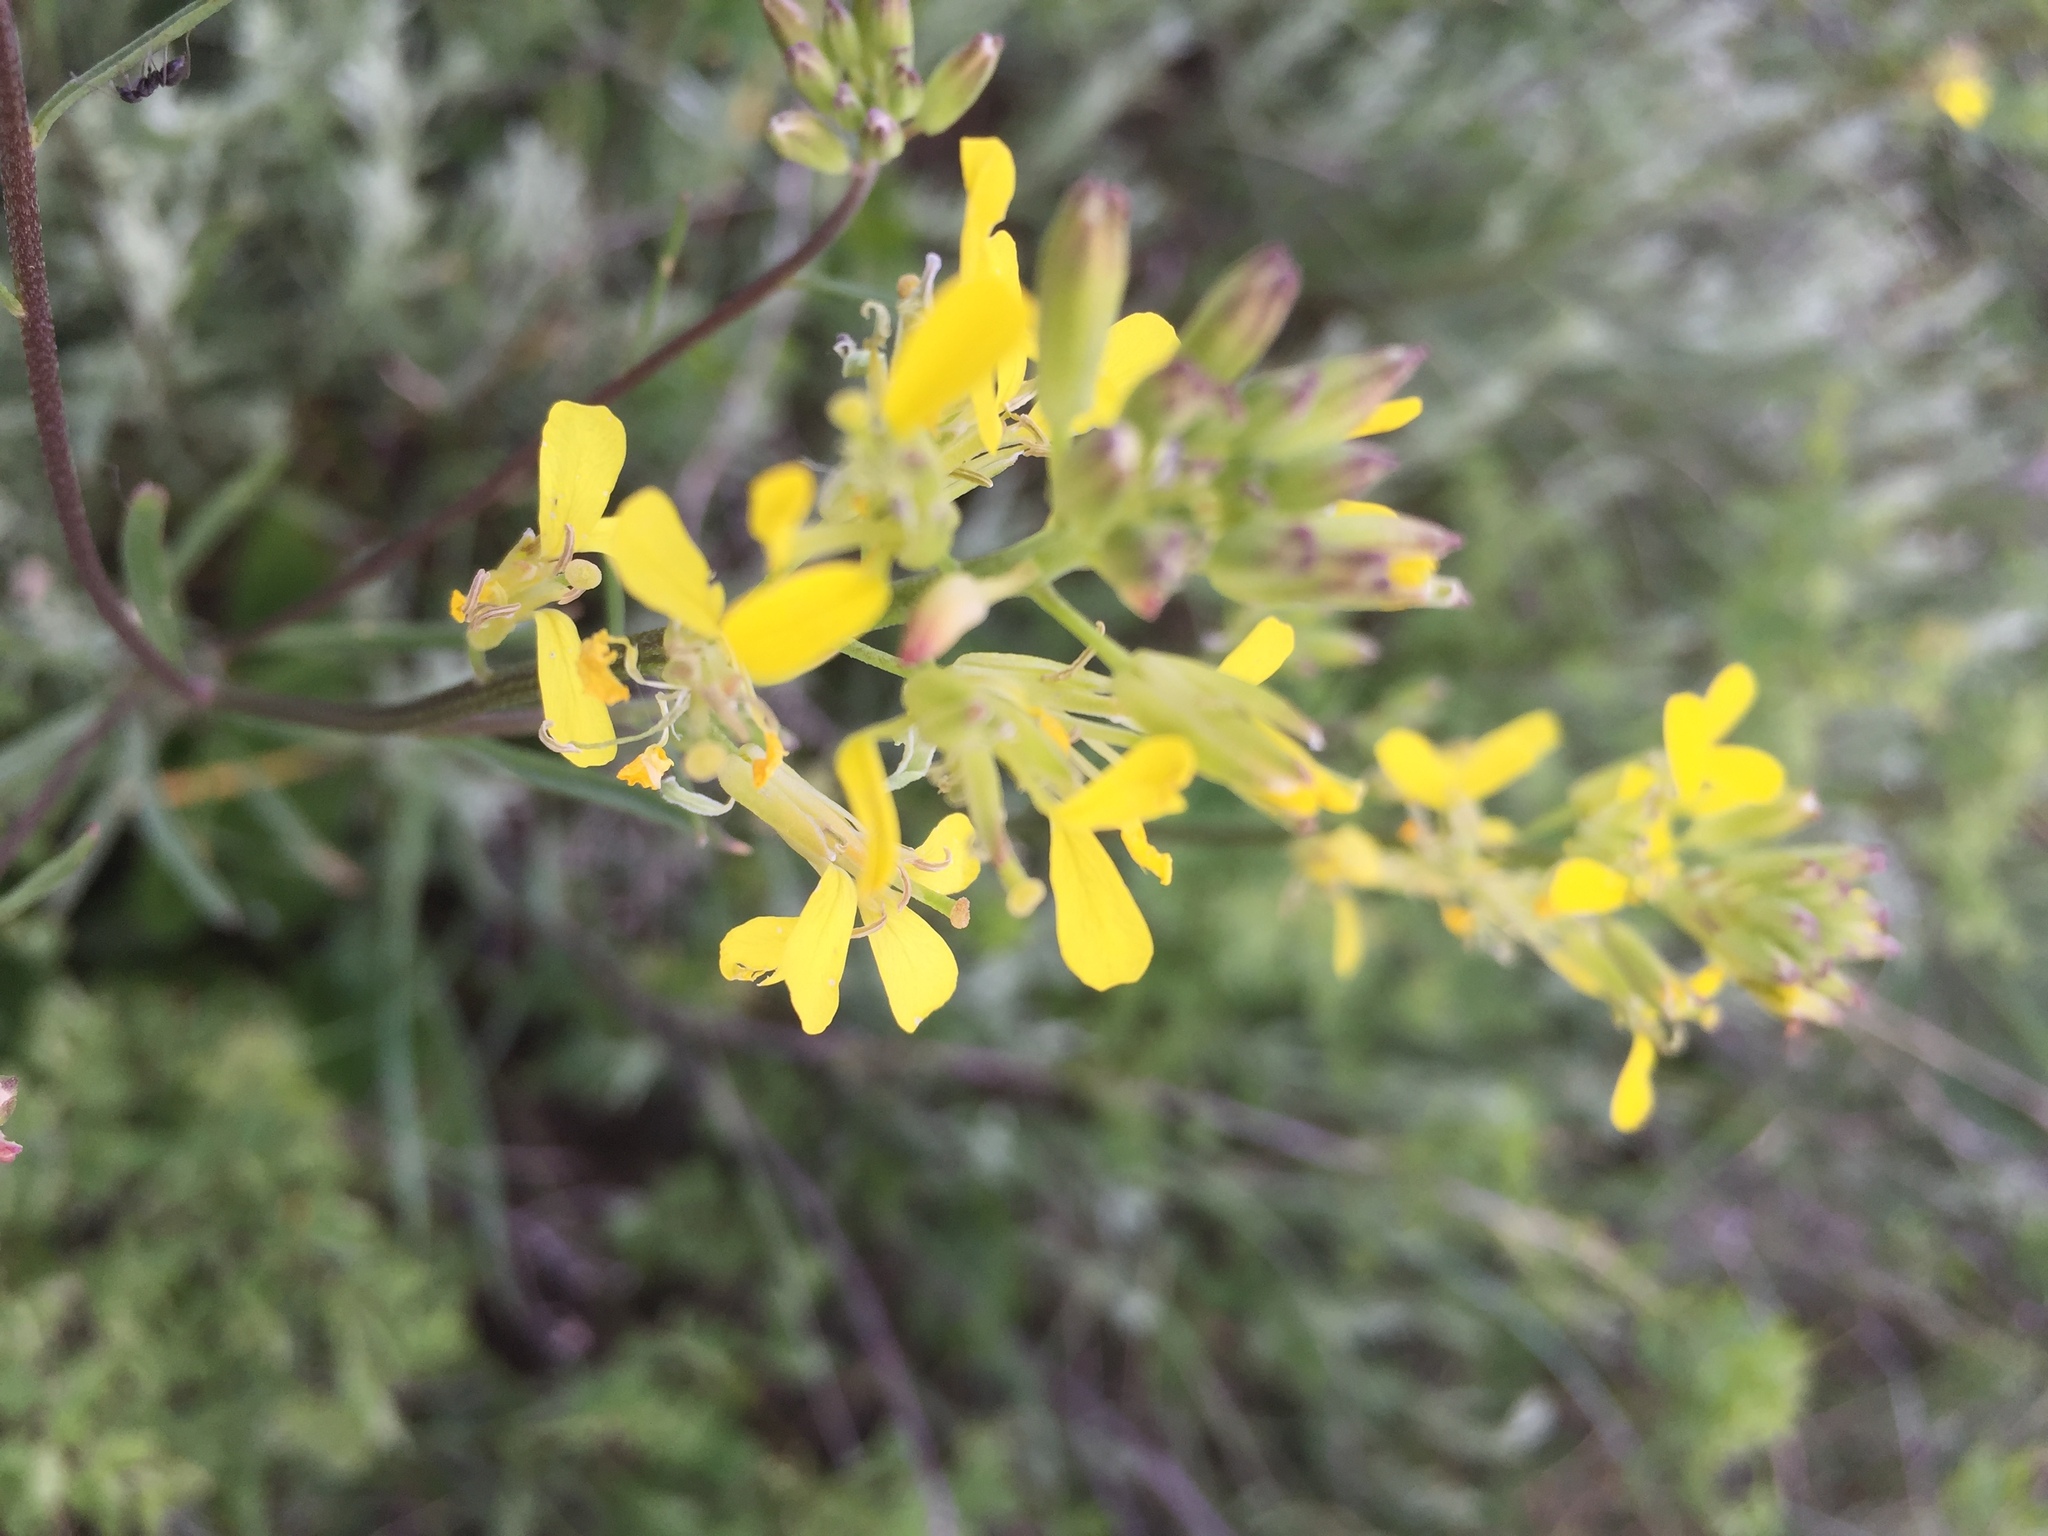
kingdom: Plantae
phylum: Tracheophyta
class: Magnoliopsida
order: Brassicales
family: Brassicaceae
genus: Erysimum
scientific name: Erysimum diffusum
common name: Diffuse wallflower
